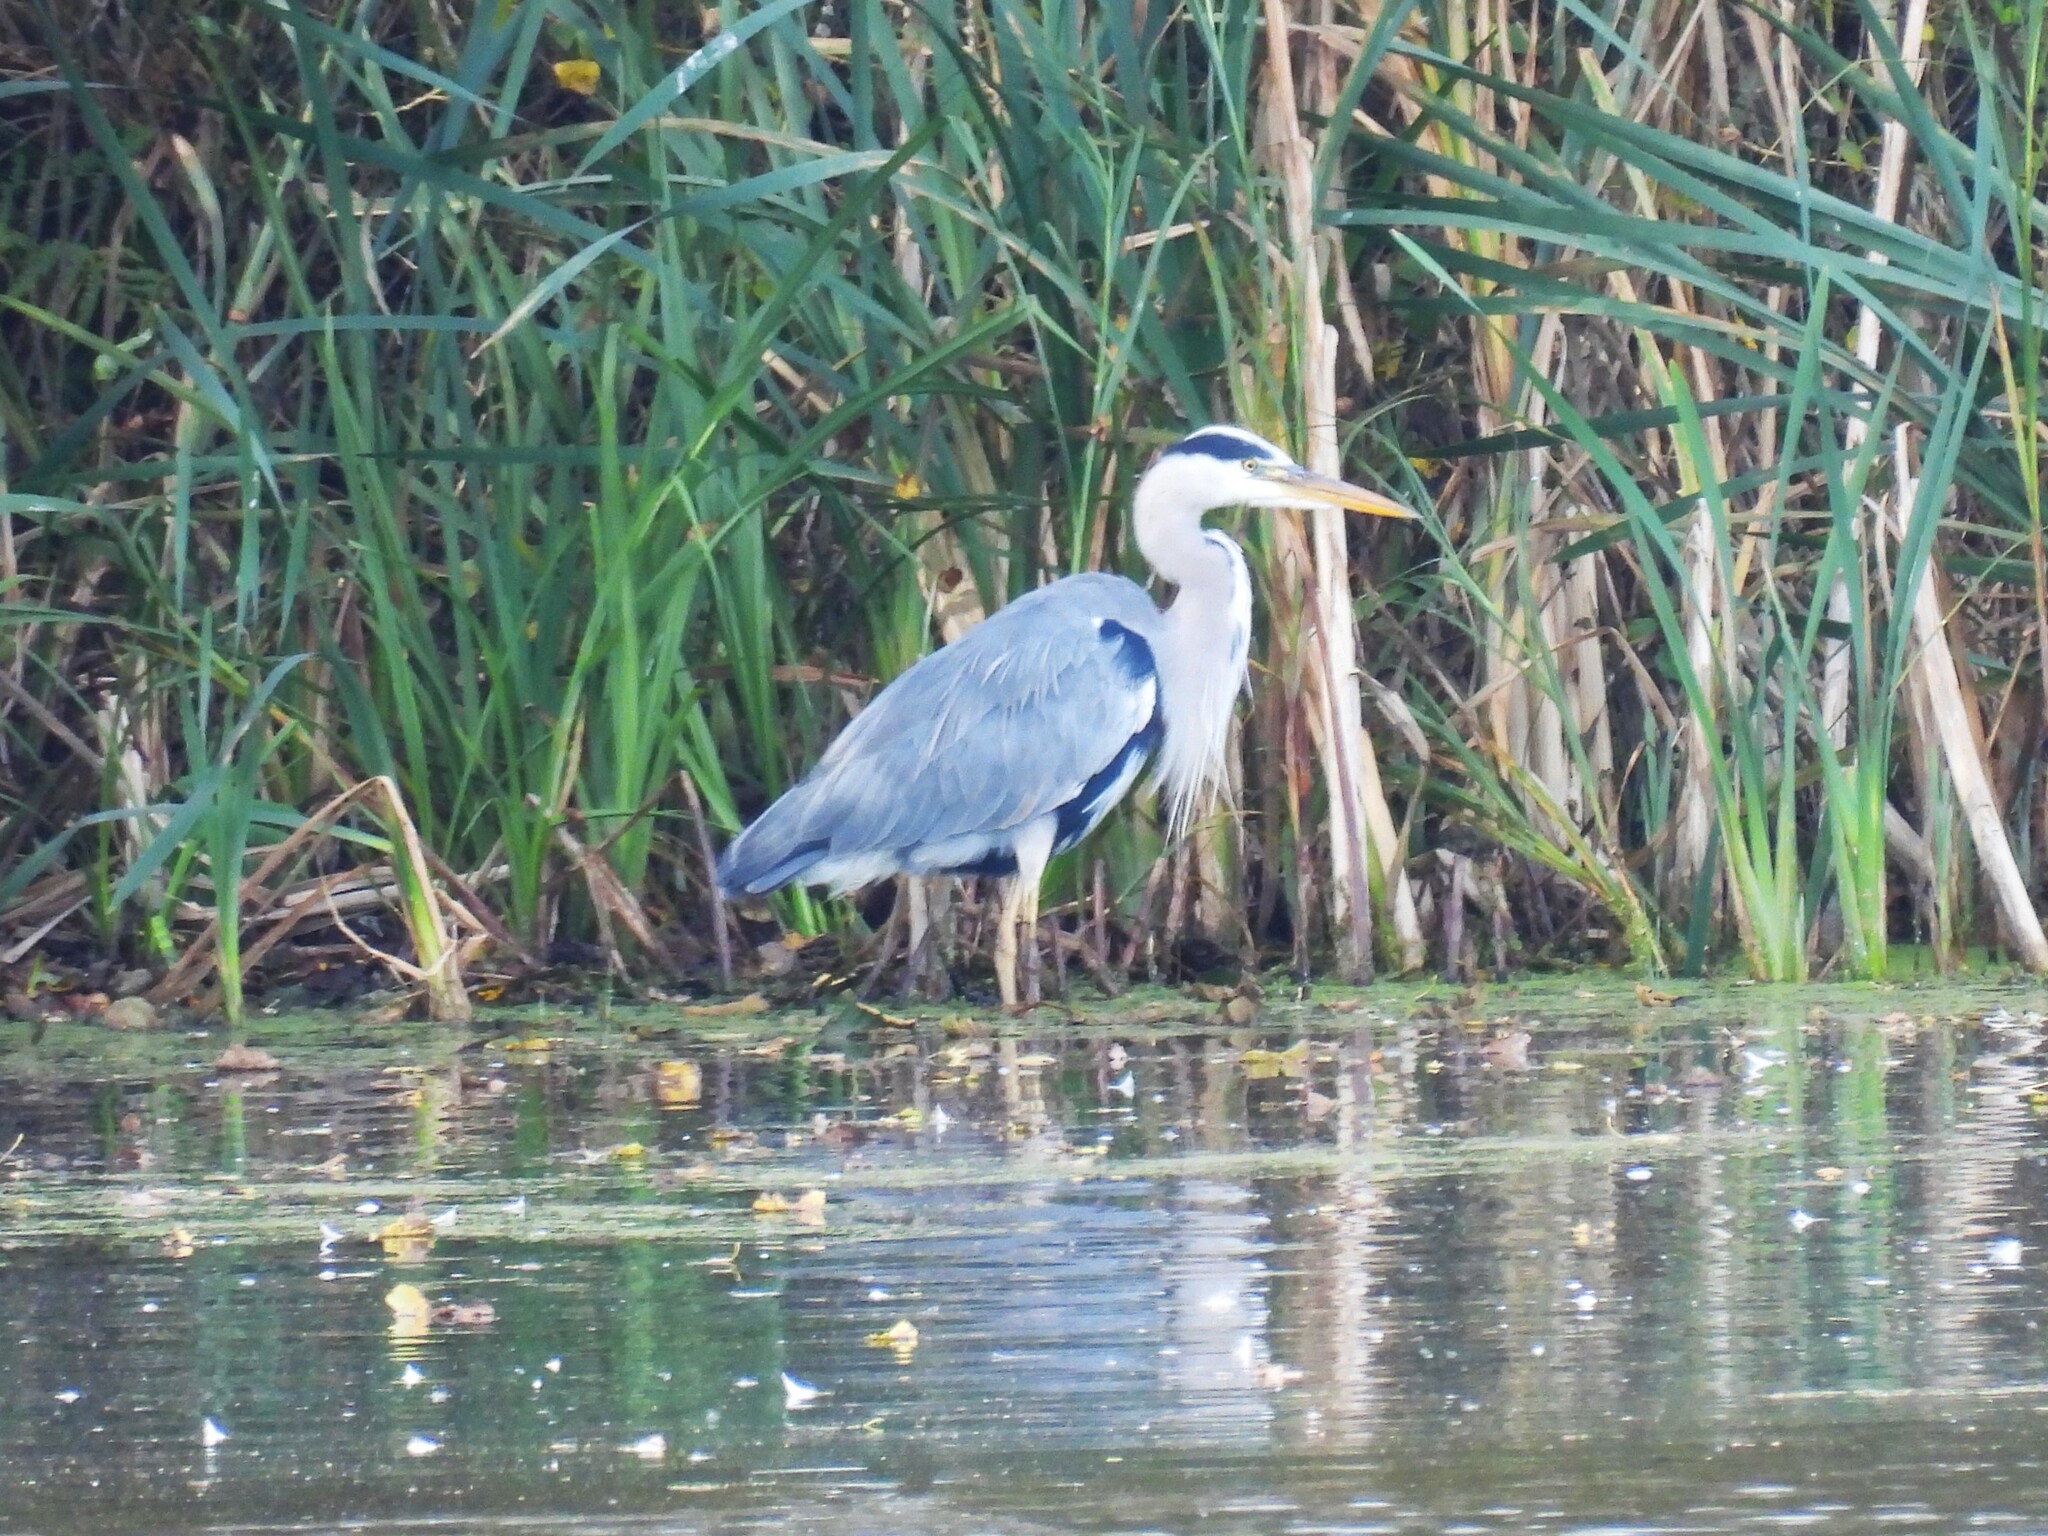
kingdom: Animalia
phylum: Chordata
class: Aves
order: Pelecaniformes
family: Ardeidae
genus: Ardea
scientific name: Ardea cinerea
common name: Grey heron
